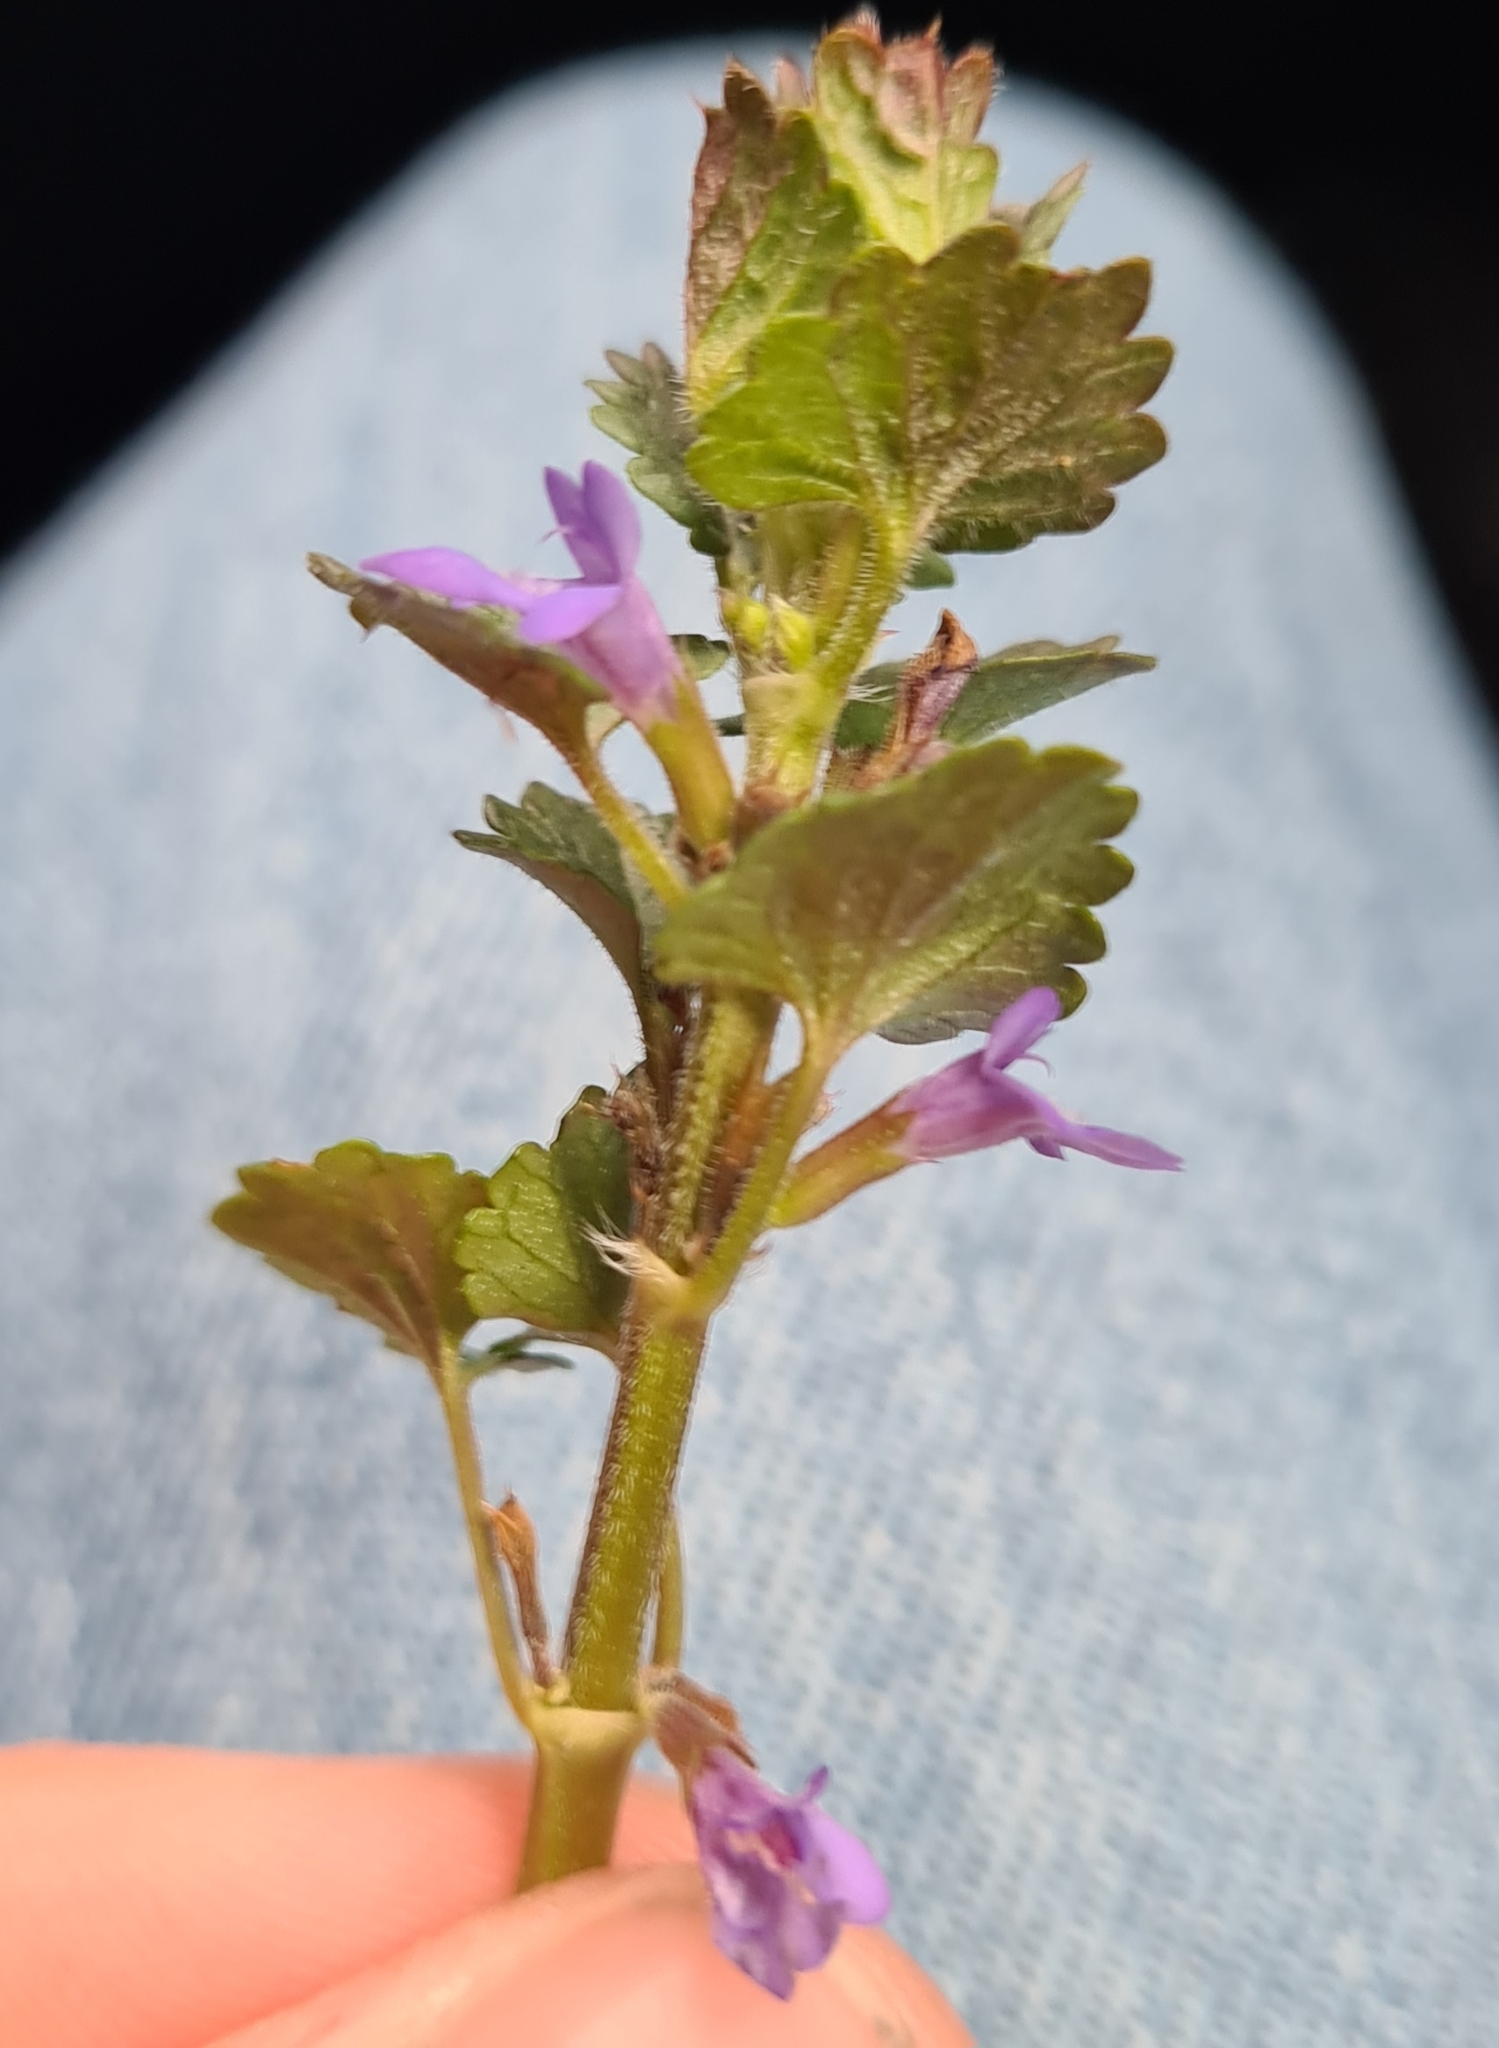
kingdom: Plantae
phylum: Tracheophyta
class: Magnoliopsida
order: Lamiales
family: Lamiaceae
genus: Glechoma
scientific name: Glechoma hederacea
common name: Ground ivy
